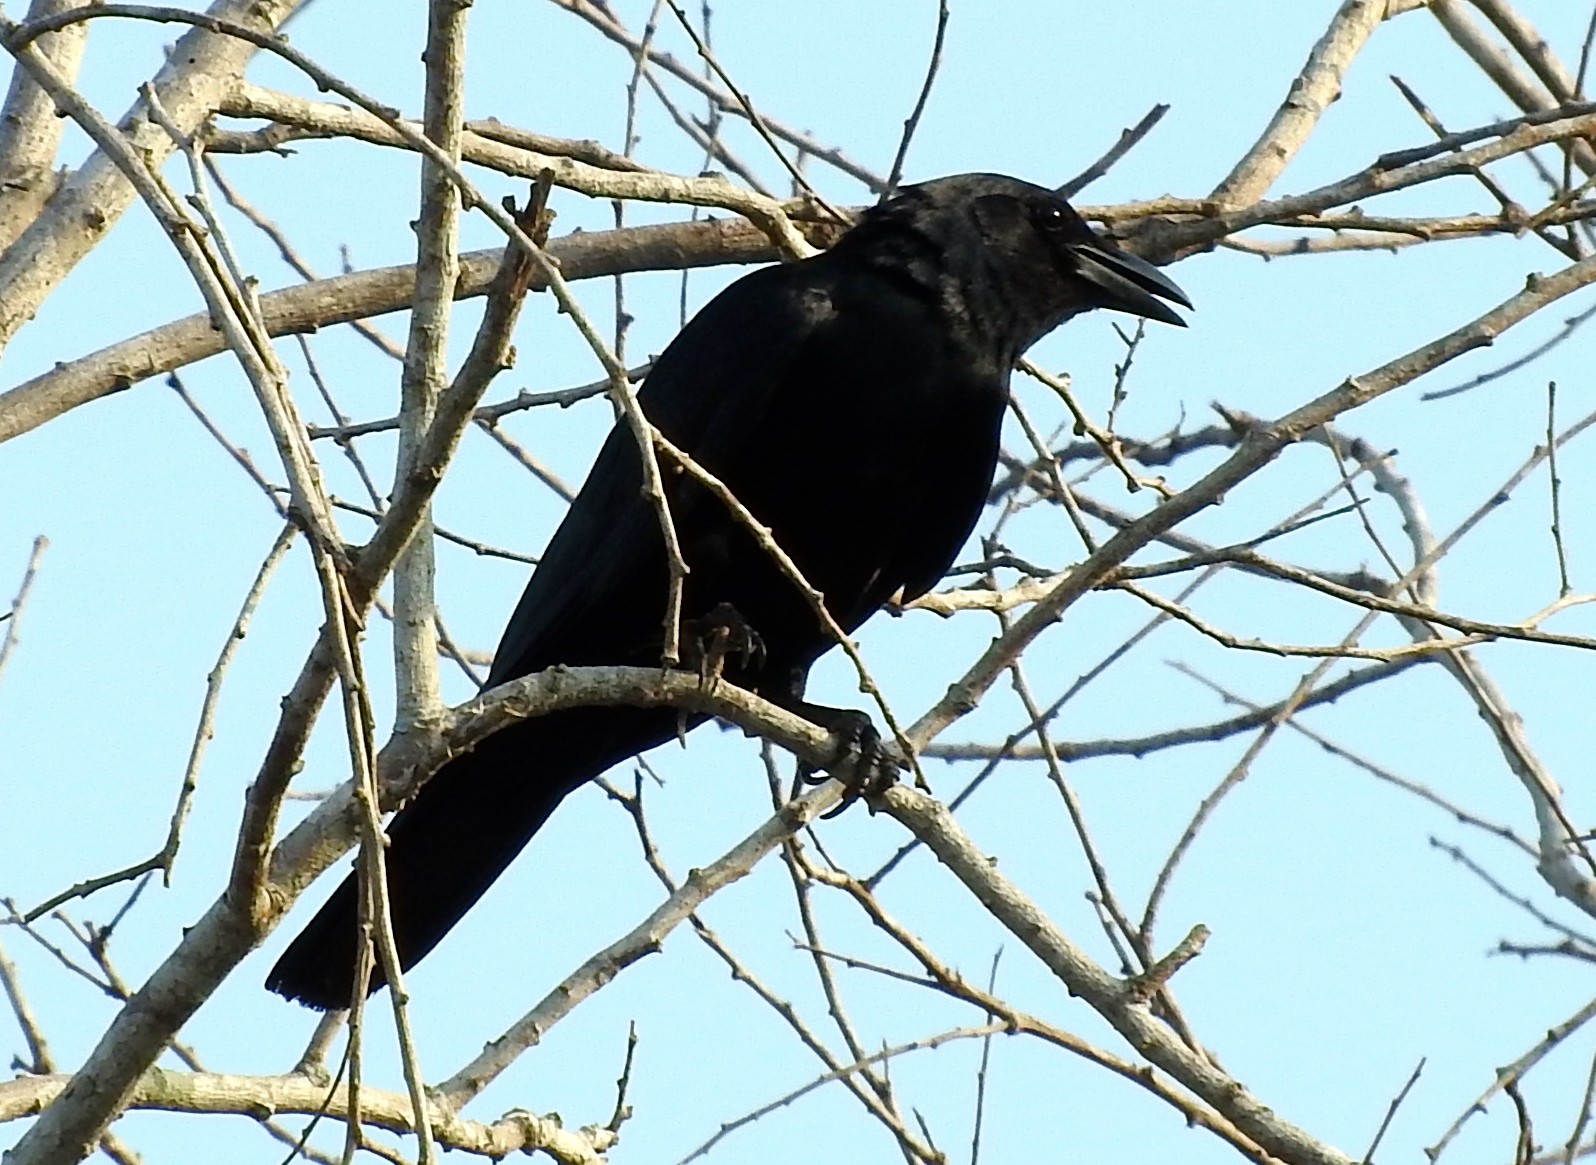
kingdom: Animalia
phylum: Chordata
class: Aves
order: Passeriformes
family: Corvidae
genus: Corvus
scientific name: Corvus sinaloae
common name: Sinaloa crow
